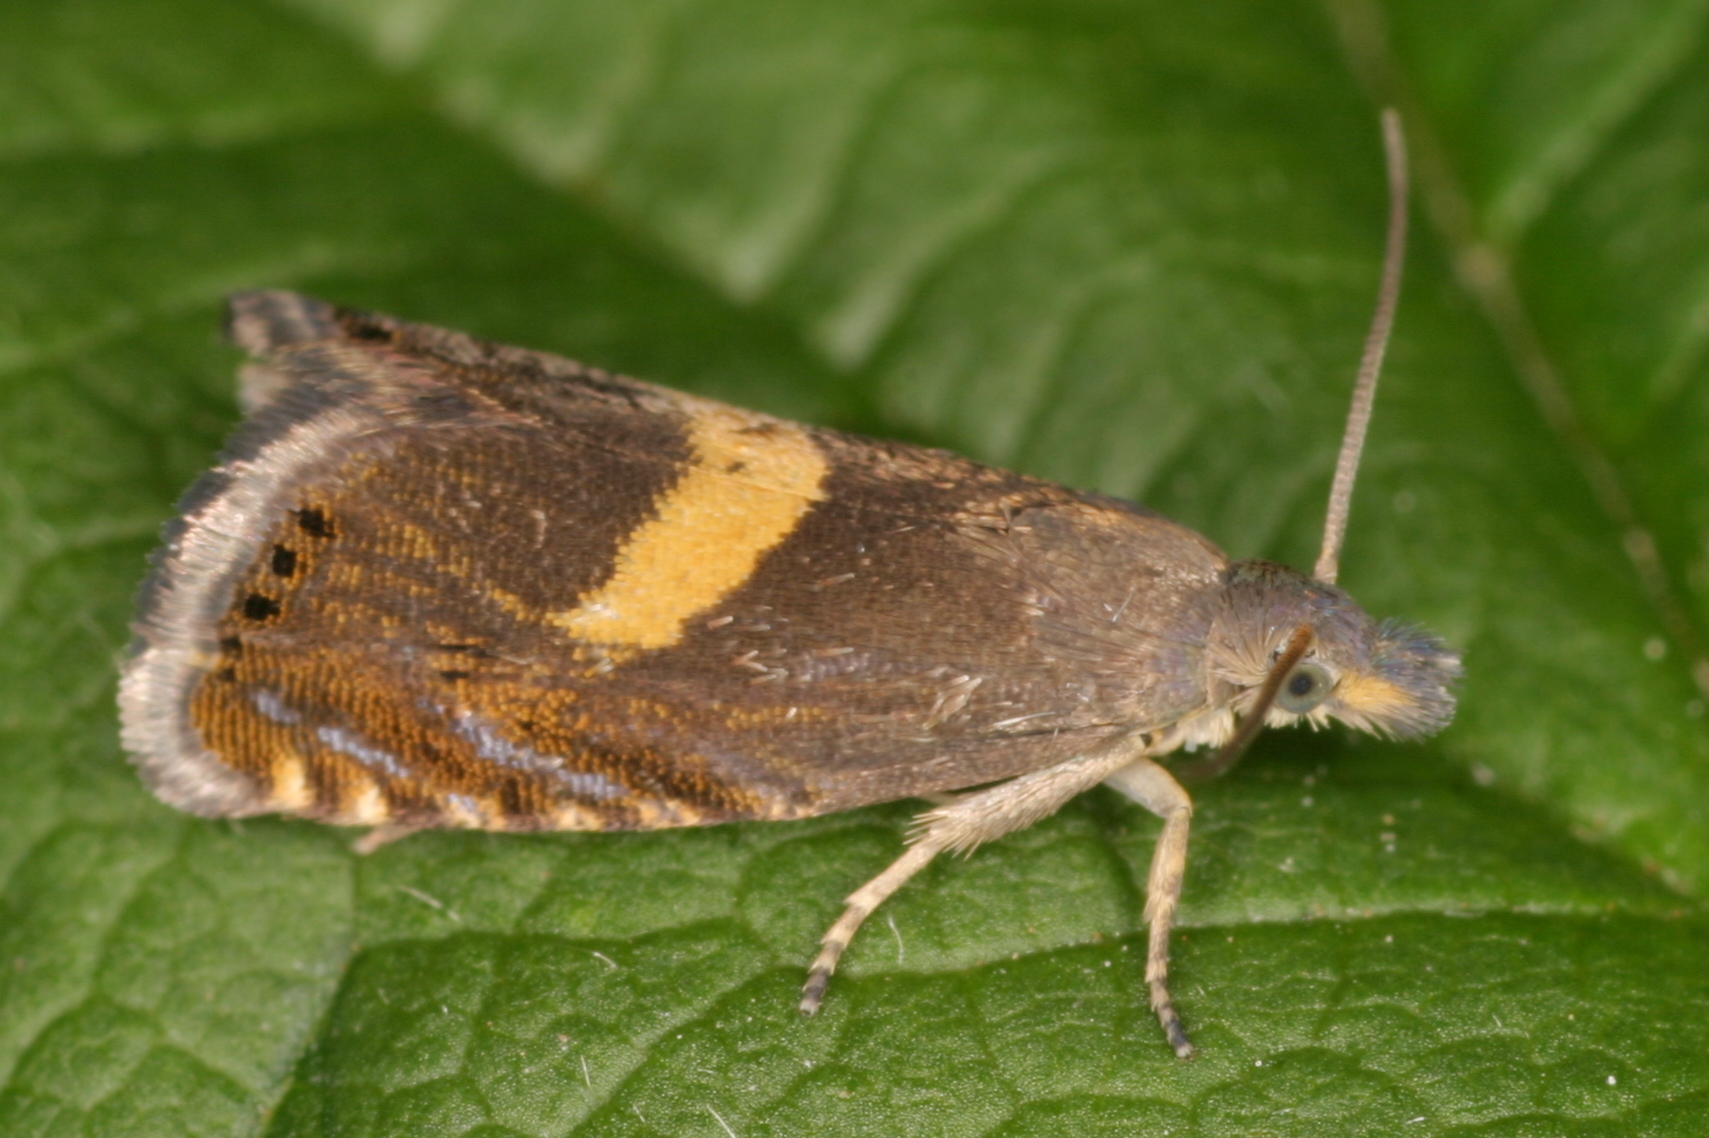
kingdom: Animalia
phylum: Arthropoda
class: Insecta
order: Lepidoptera
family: Tortricidae
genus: Dichrorampha
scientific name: Dichrorampha petiverella
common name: Common drill
